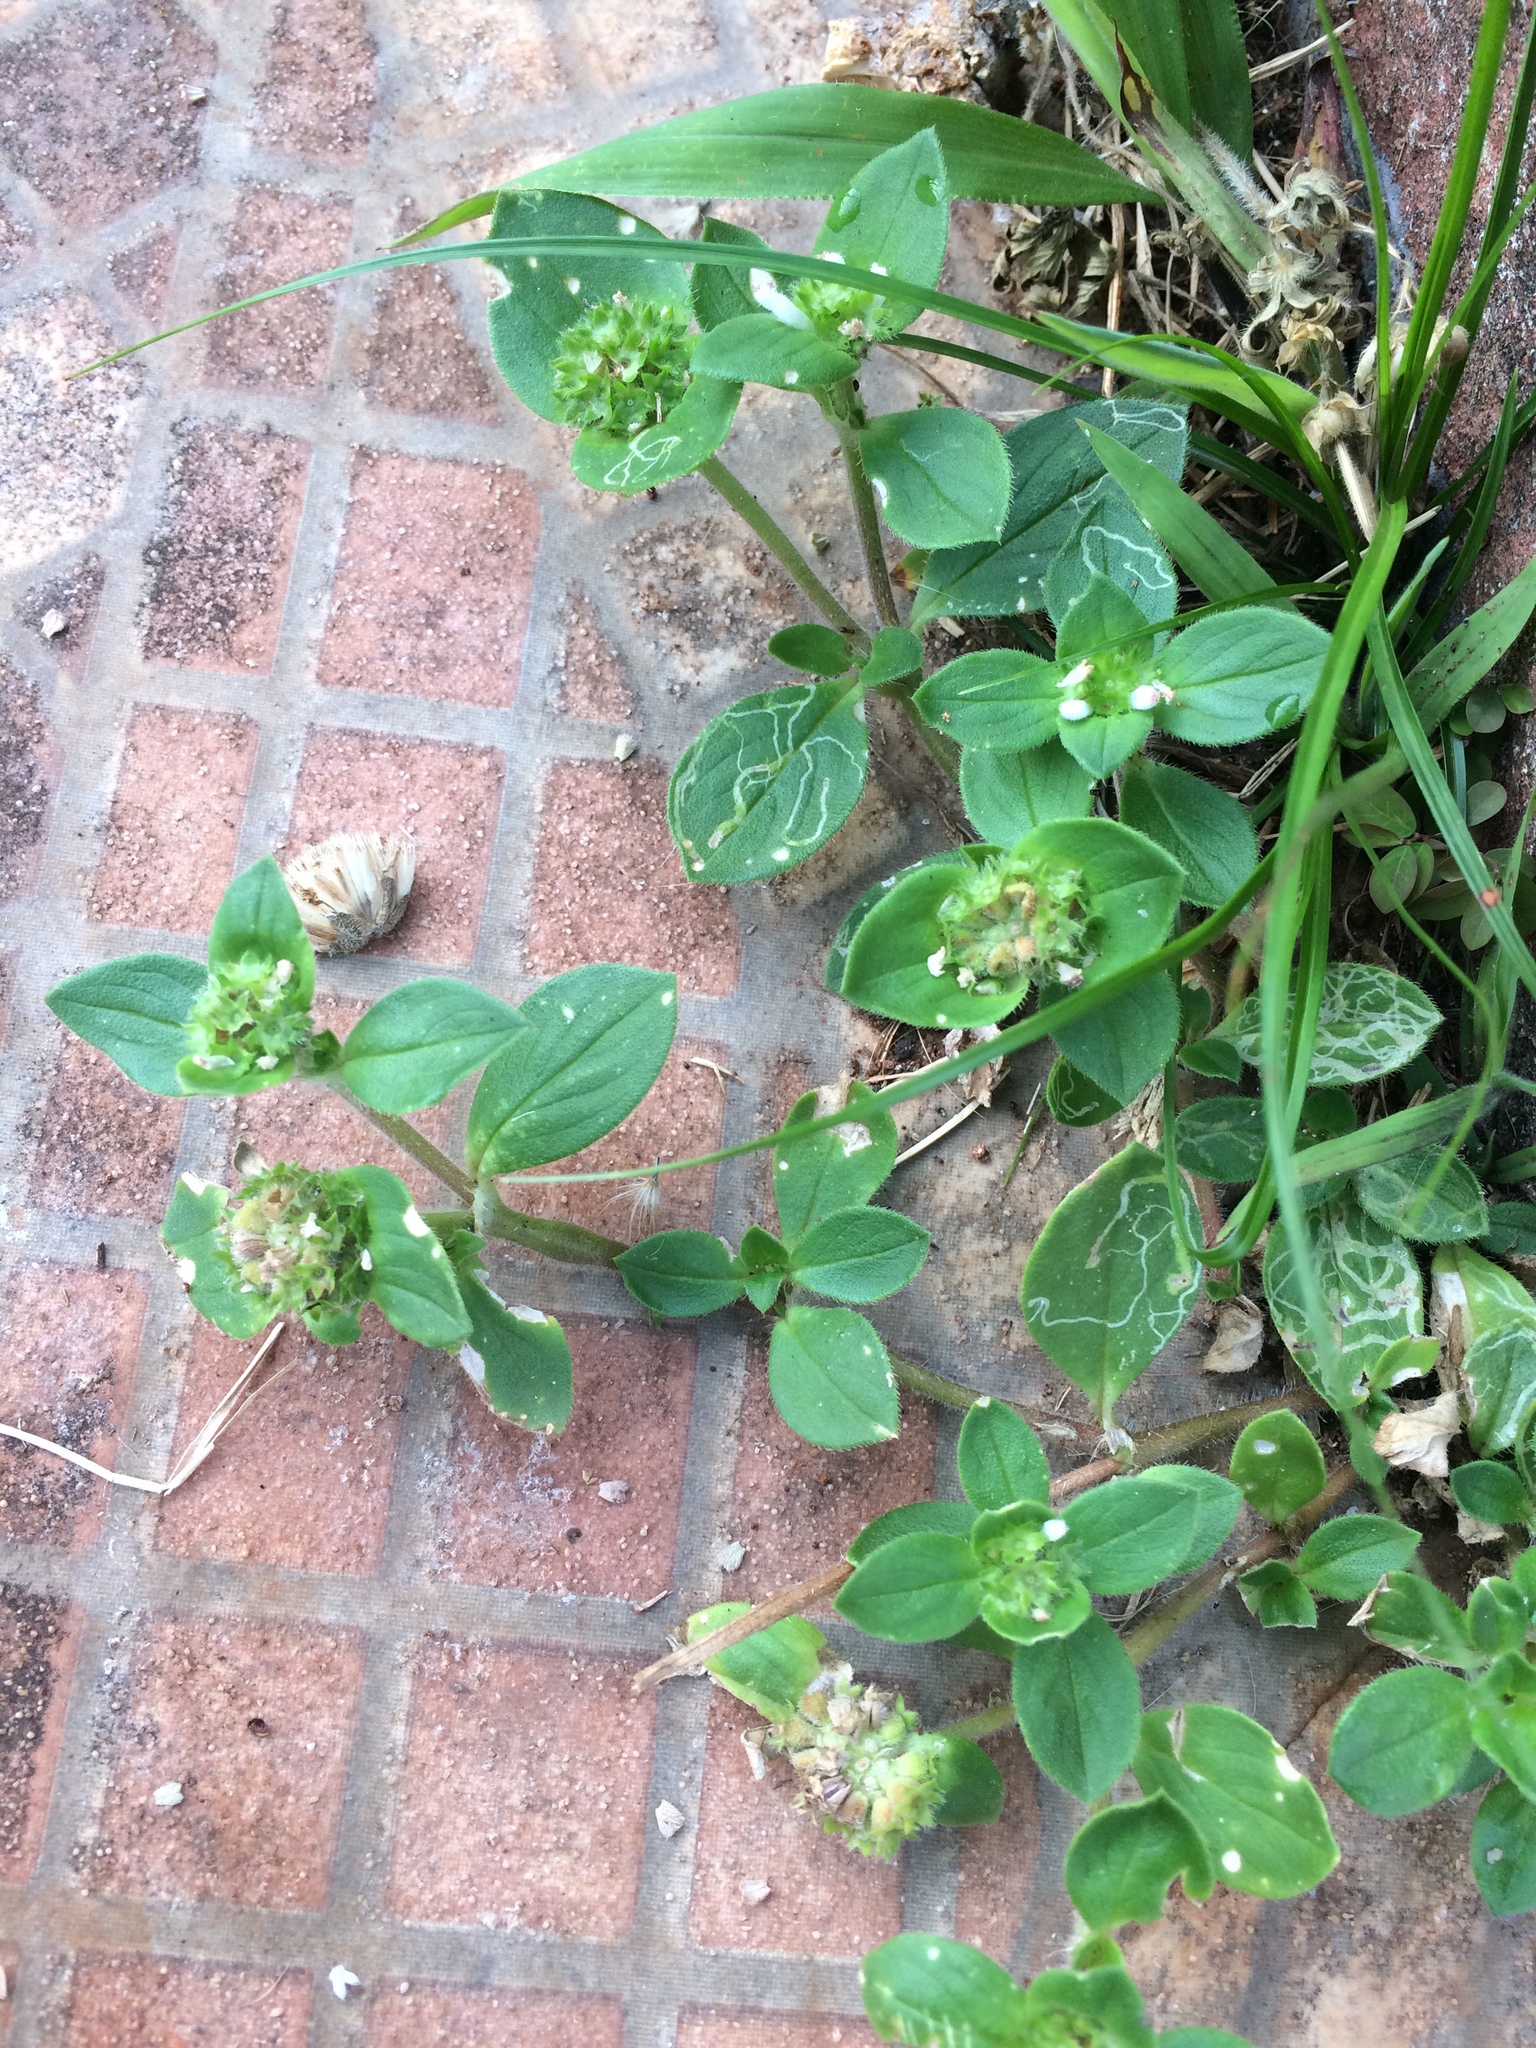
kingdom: Plantae
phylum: Tracheophyta
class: Magnoliopsida
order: Gentianales
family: Rubiaceae
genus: Richardia
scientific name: Richardia brasiliensis
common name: Tropical mexican clover
